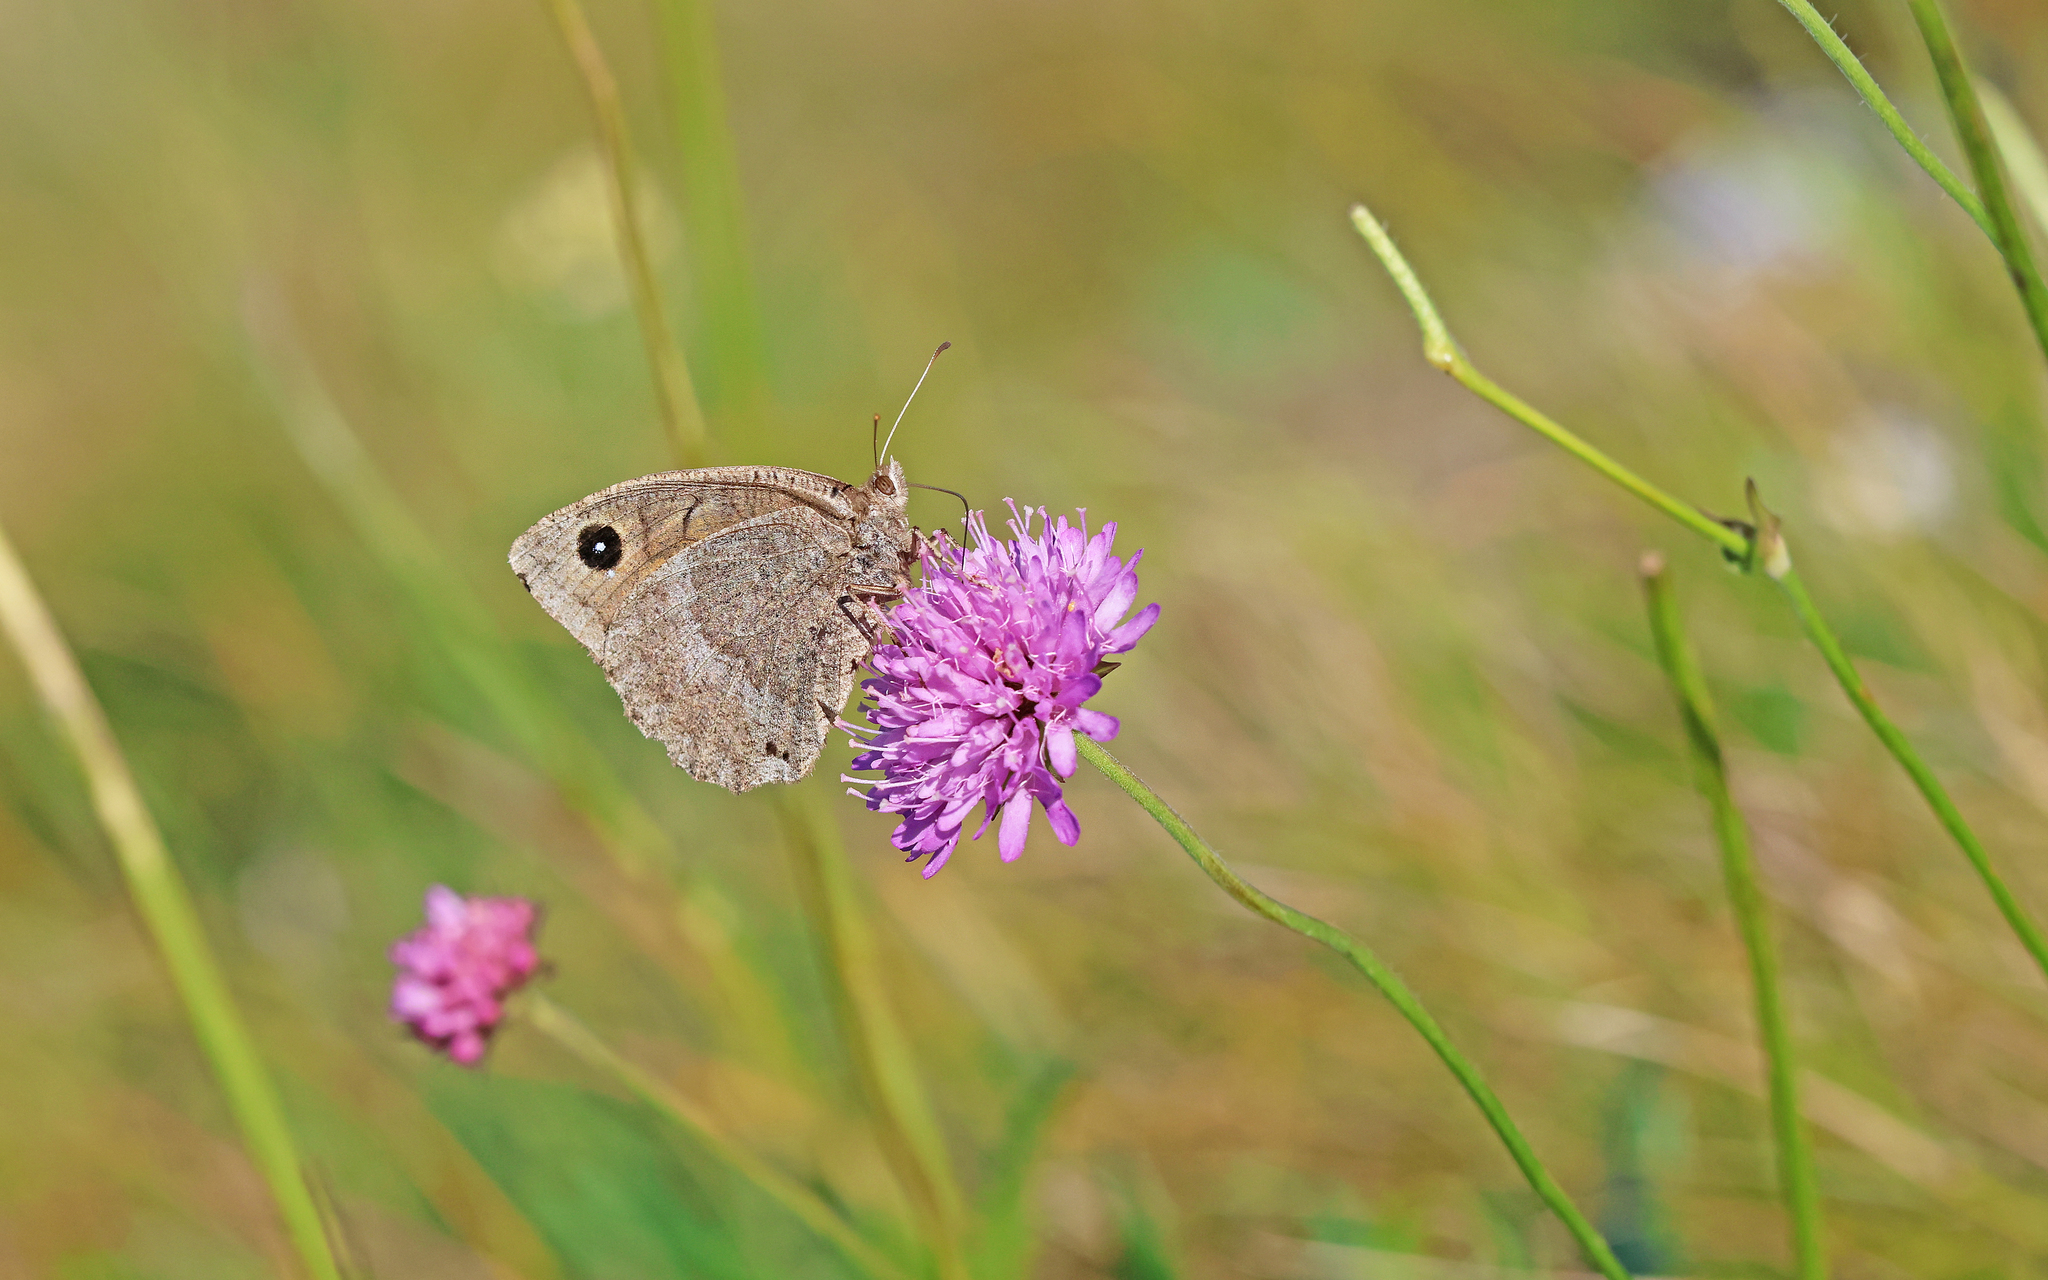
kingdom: Animalia
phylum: Arthropoda
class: Insecta
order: Lepidoptera
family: Nymphalidae
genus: Satyrus
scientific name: Satyrus ferula
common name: Great sooty satyr
